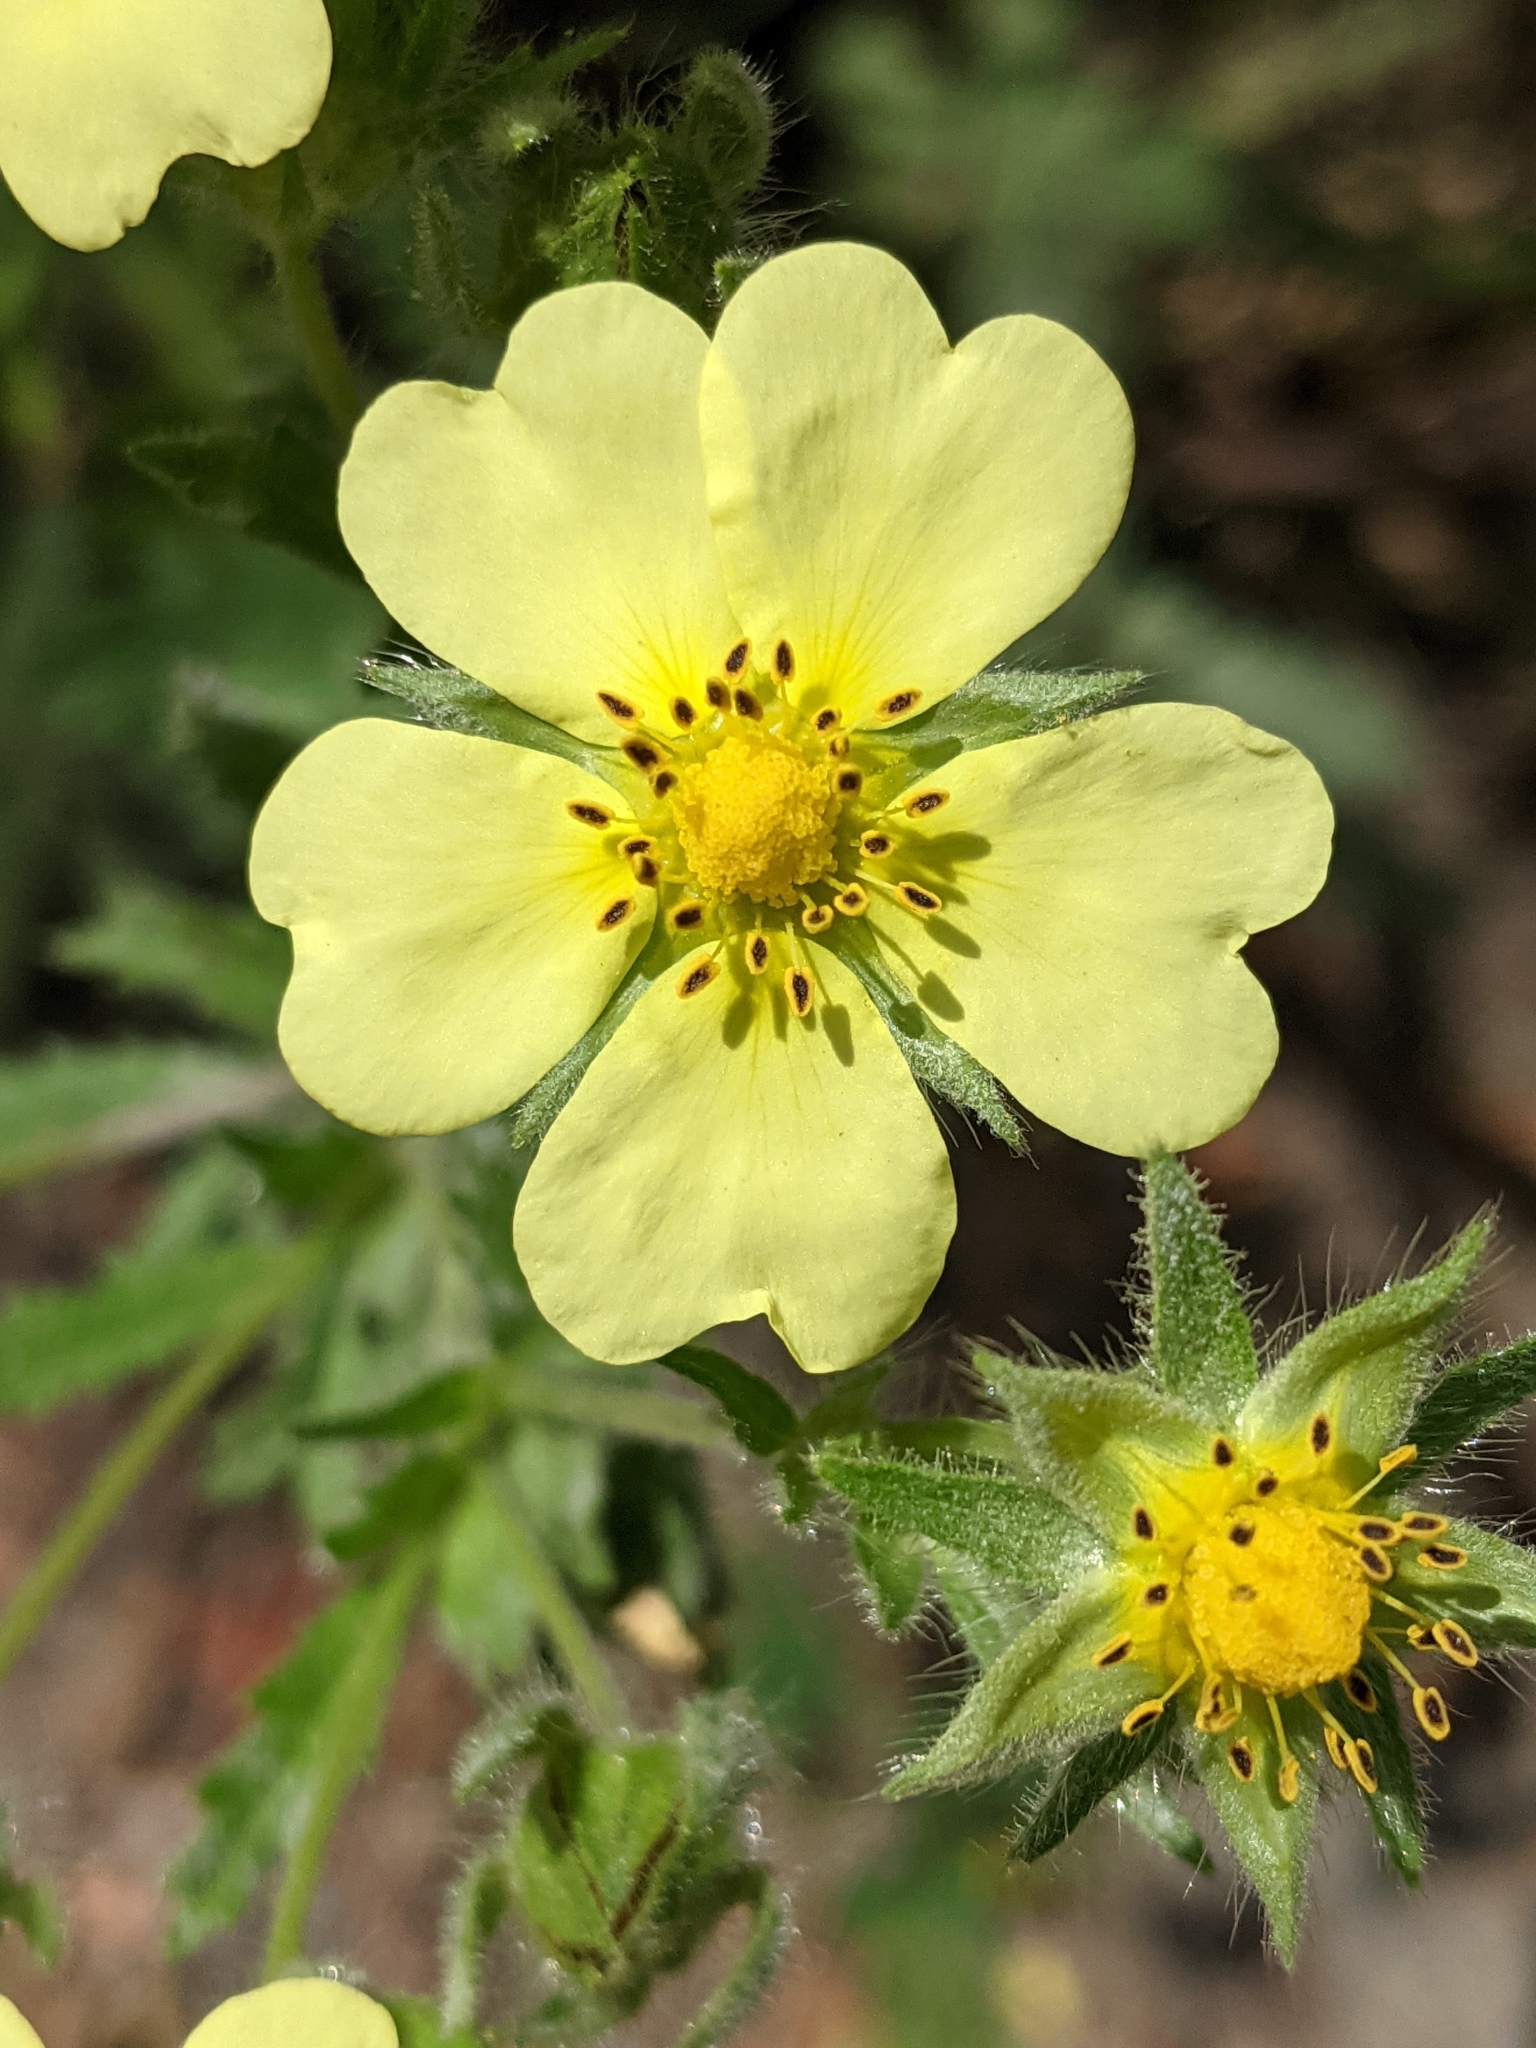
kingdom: Plantae
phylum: Tracheophyta
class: Magnoliopsida
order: Rosales
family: Rosaceae
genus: Potentilla
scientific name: Potentilla recta
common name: Sulphur cinquefoil
